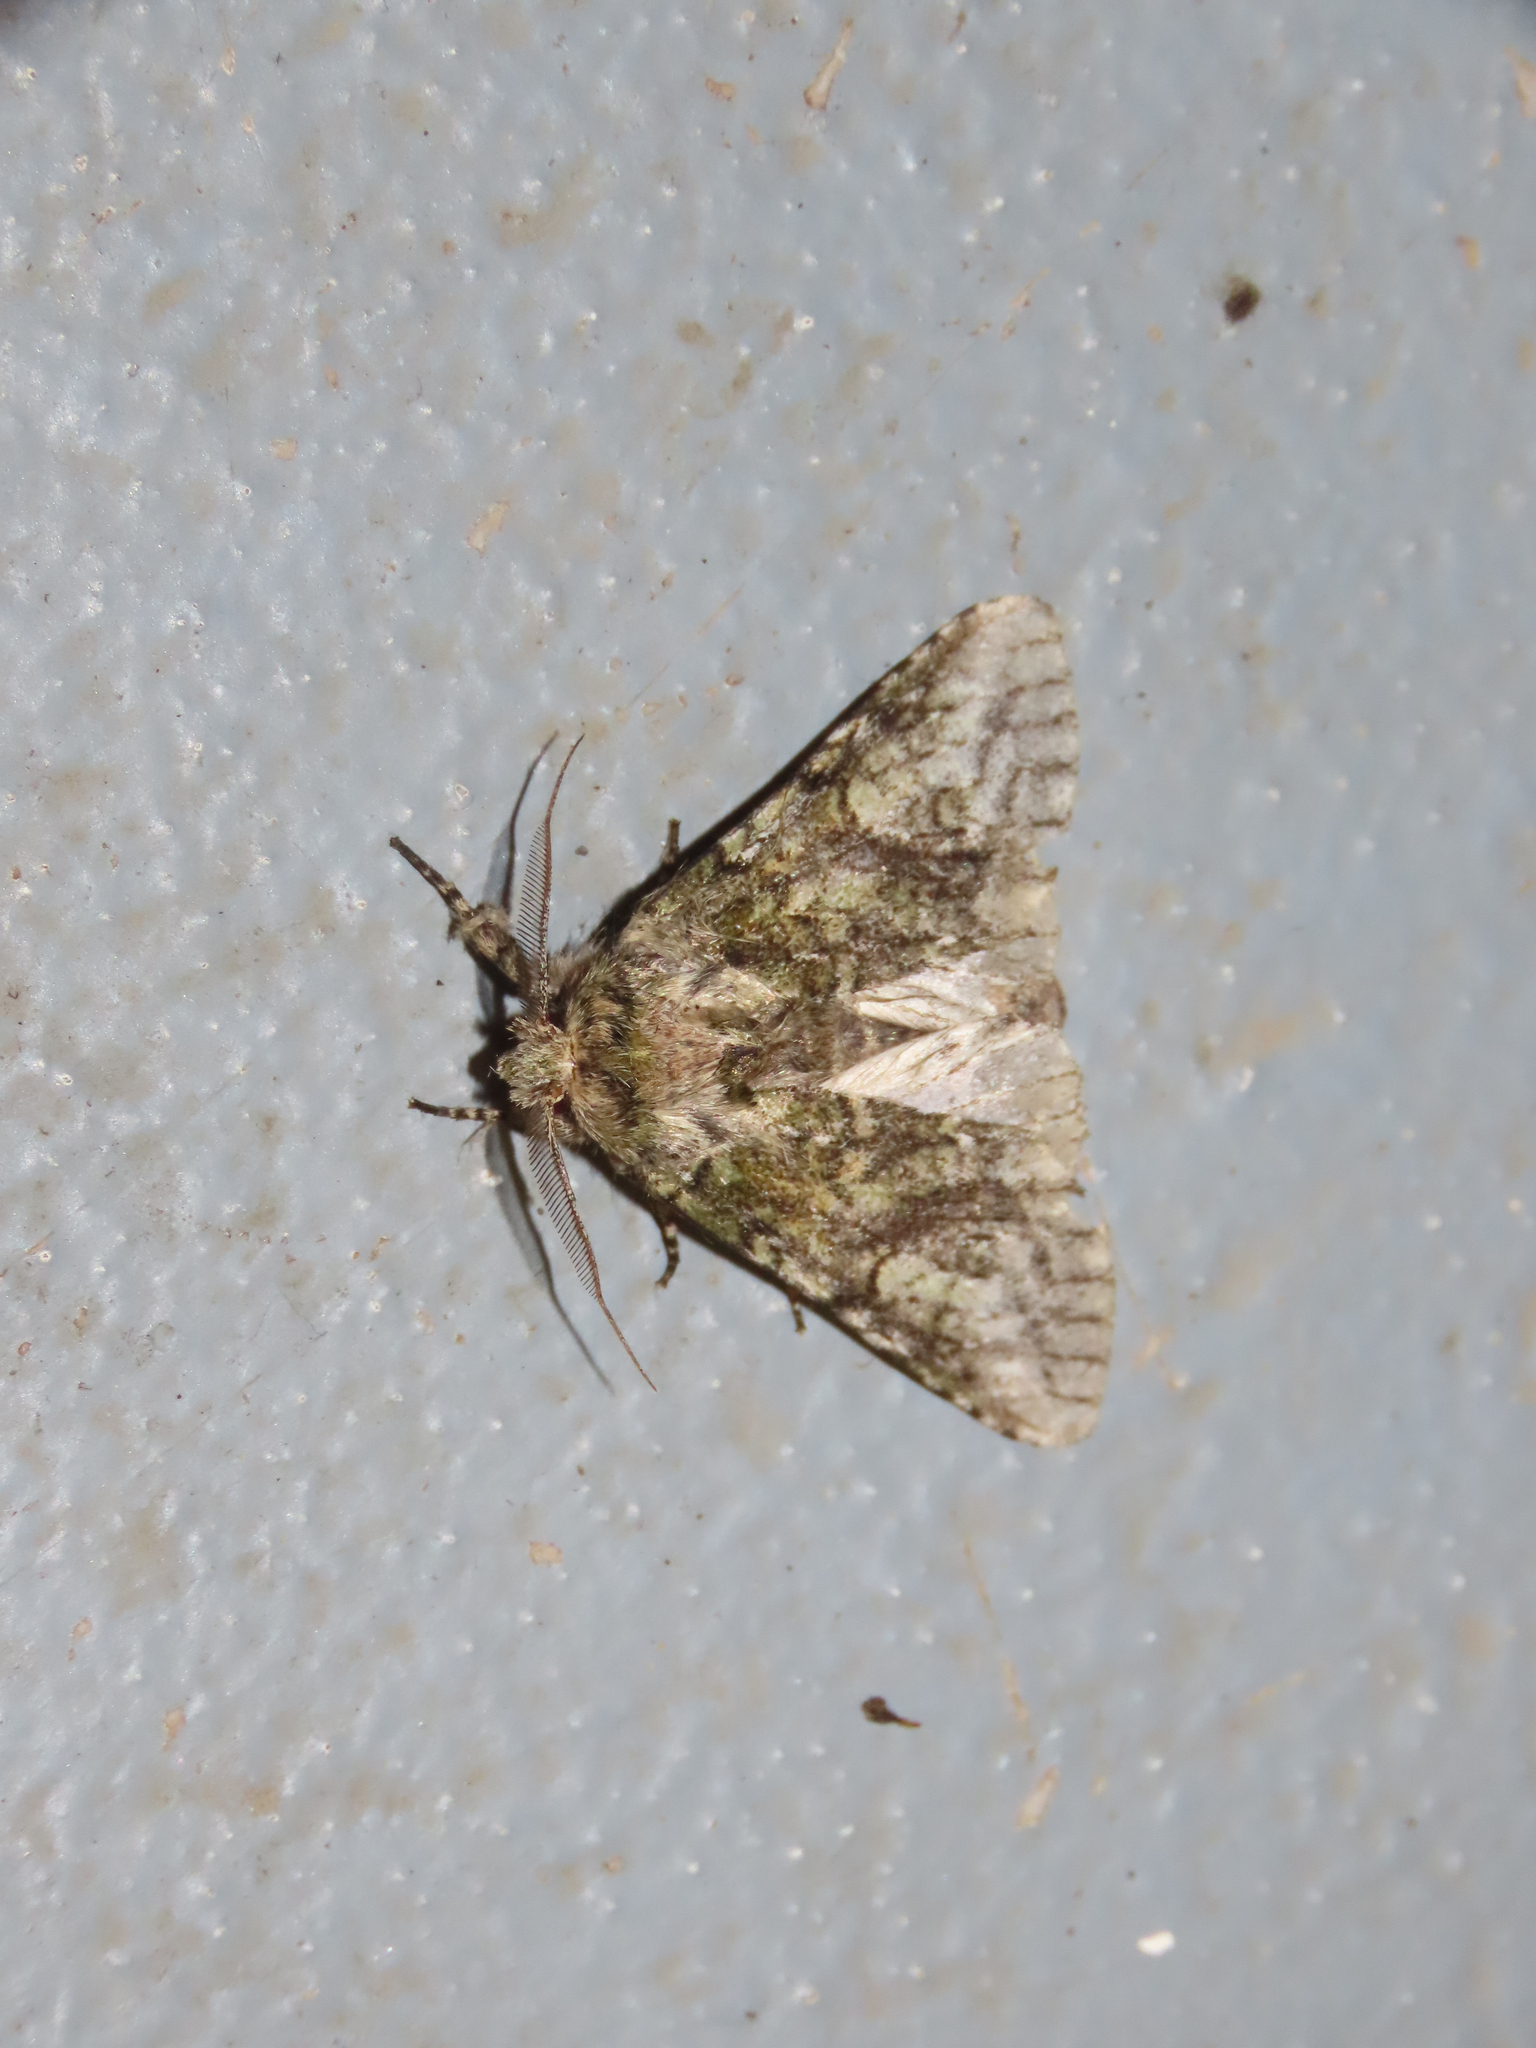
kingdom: Animalia
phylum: Arthropoda
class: Insecta
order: Lepidoptera
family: Notodontidae
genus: Heterocampa
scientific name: Heterocampa
